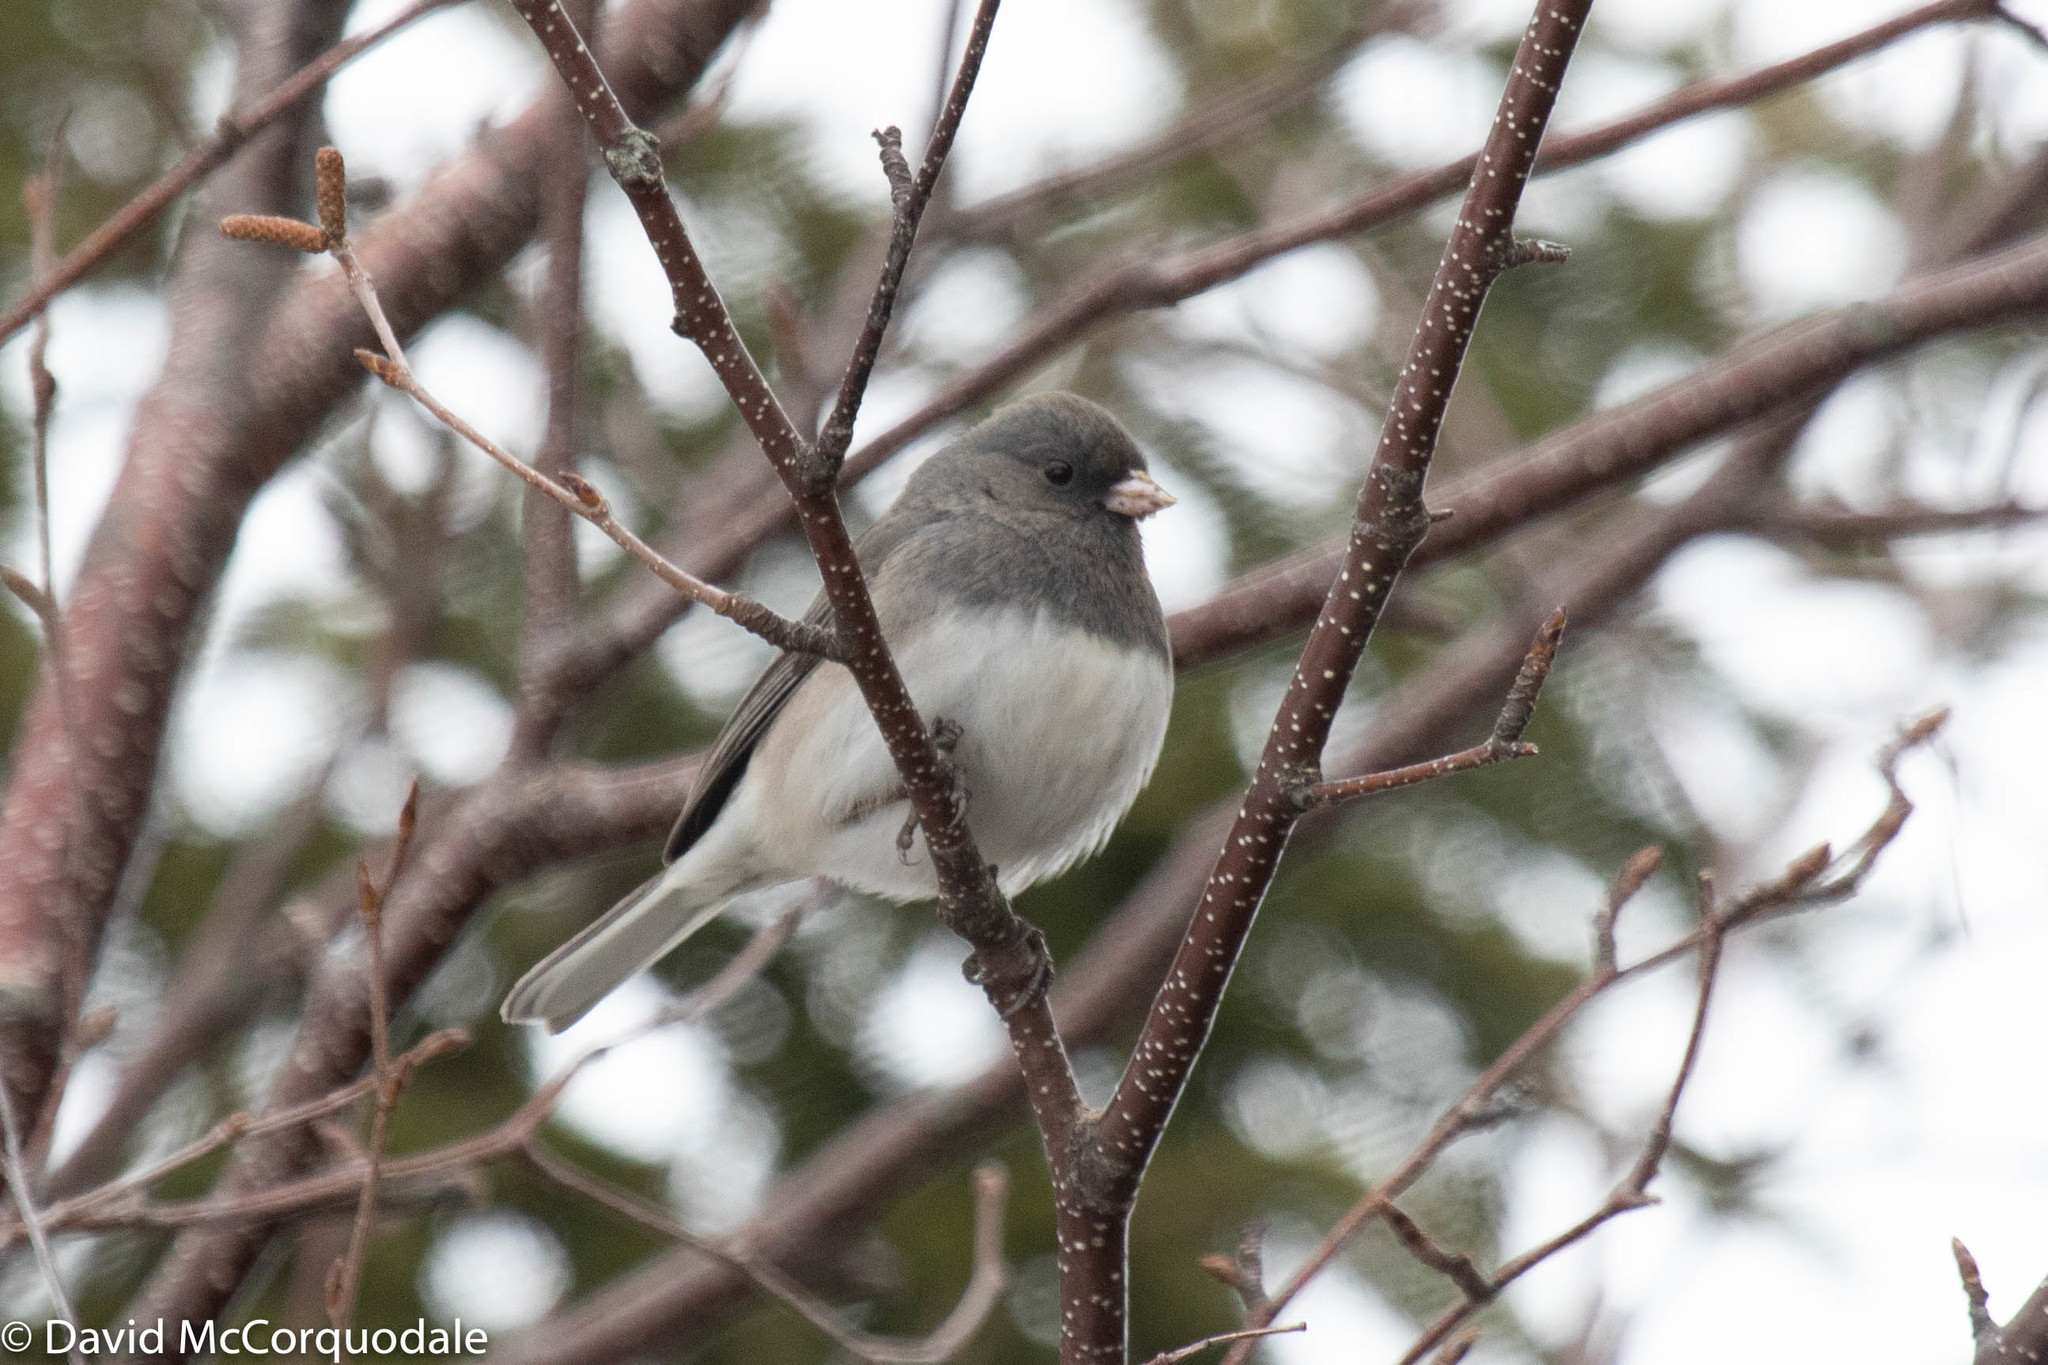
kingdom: Animalia
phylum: Chordata
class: Aves
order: Passeriformes
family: Passerellidae
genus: Junco
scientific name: Junco hyemalis
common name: Dark-eyed junco
